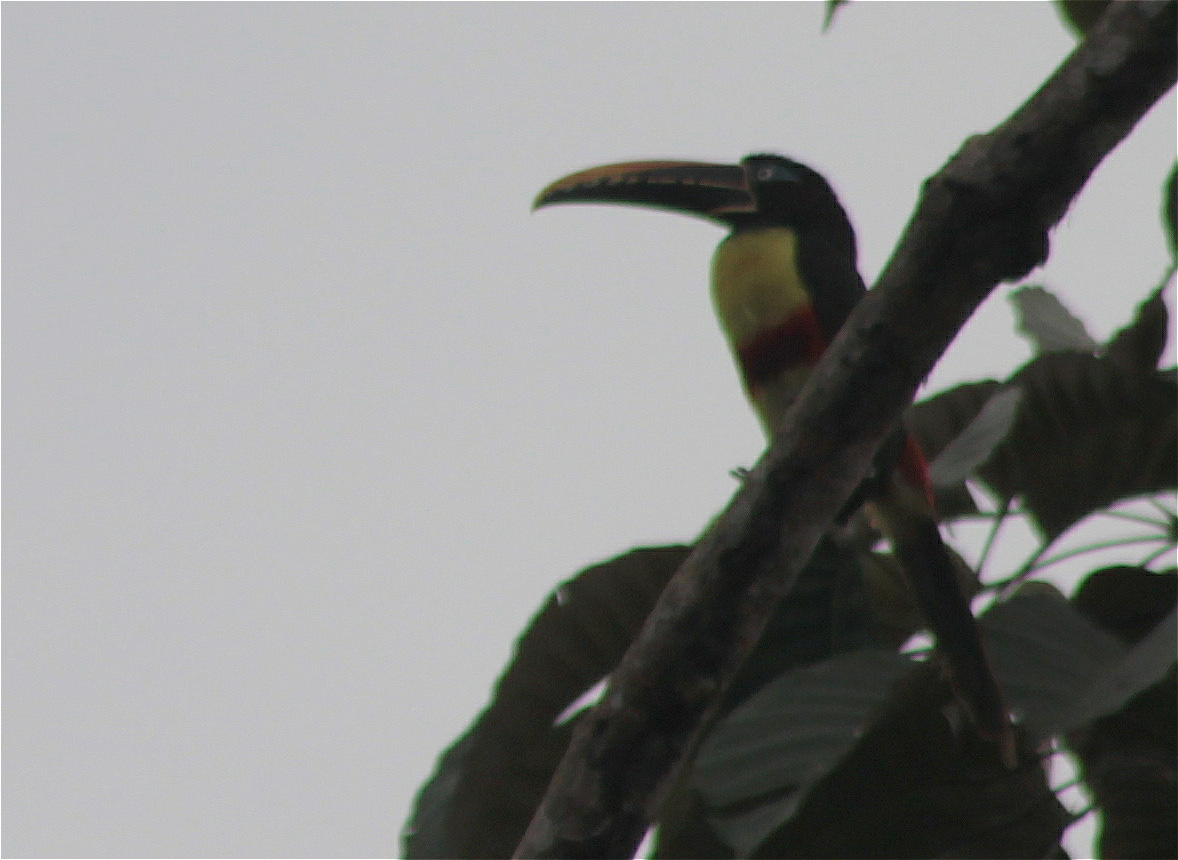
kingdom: Animalia
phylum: Chordata
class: Aves
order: Piciformes
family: Ramphastidae
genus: Pteroglossus
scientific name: Pteroglossus castanotis
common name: Chestnut-eared aracari
